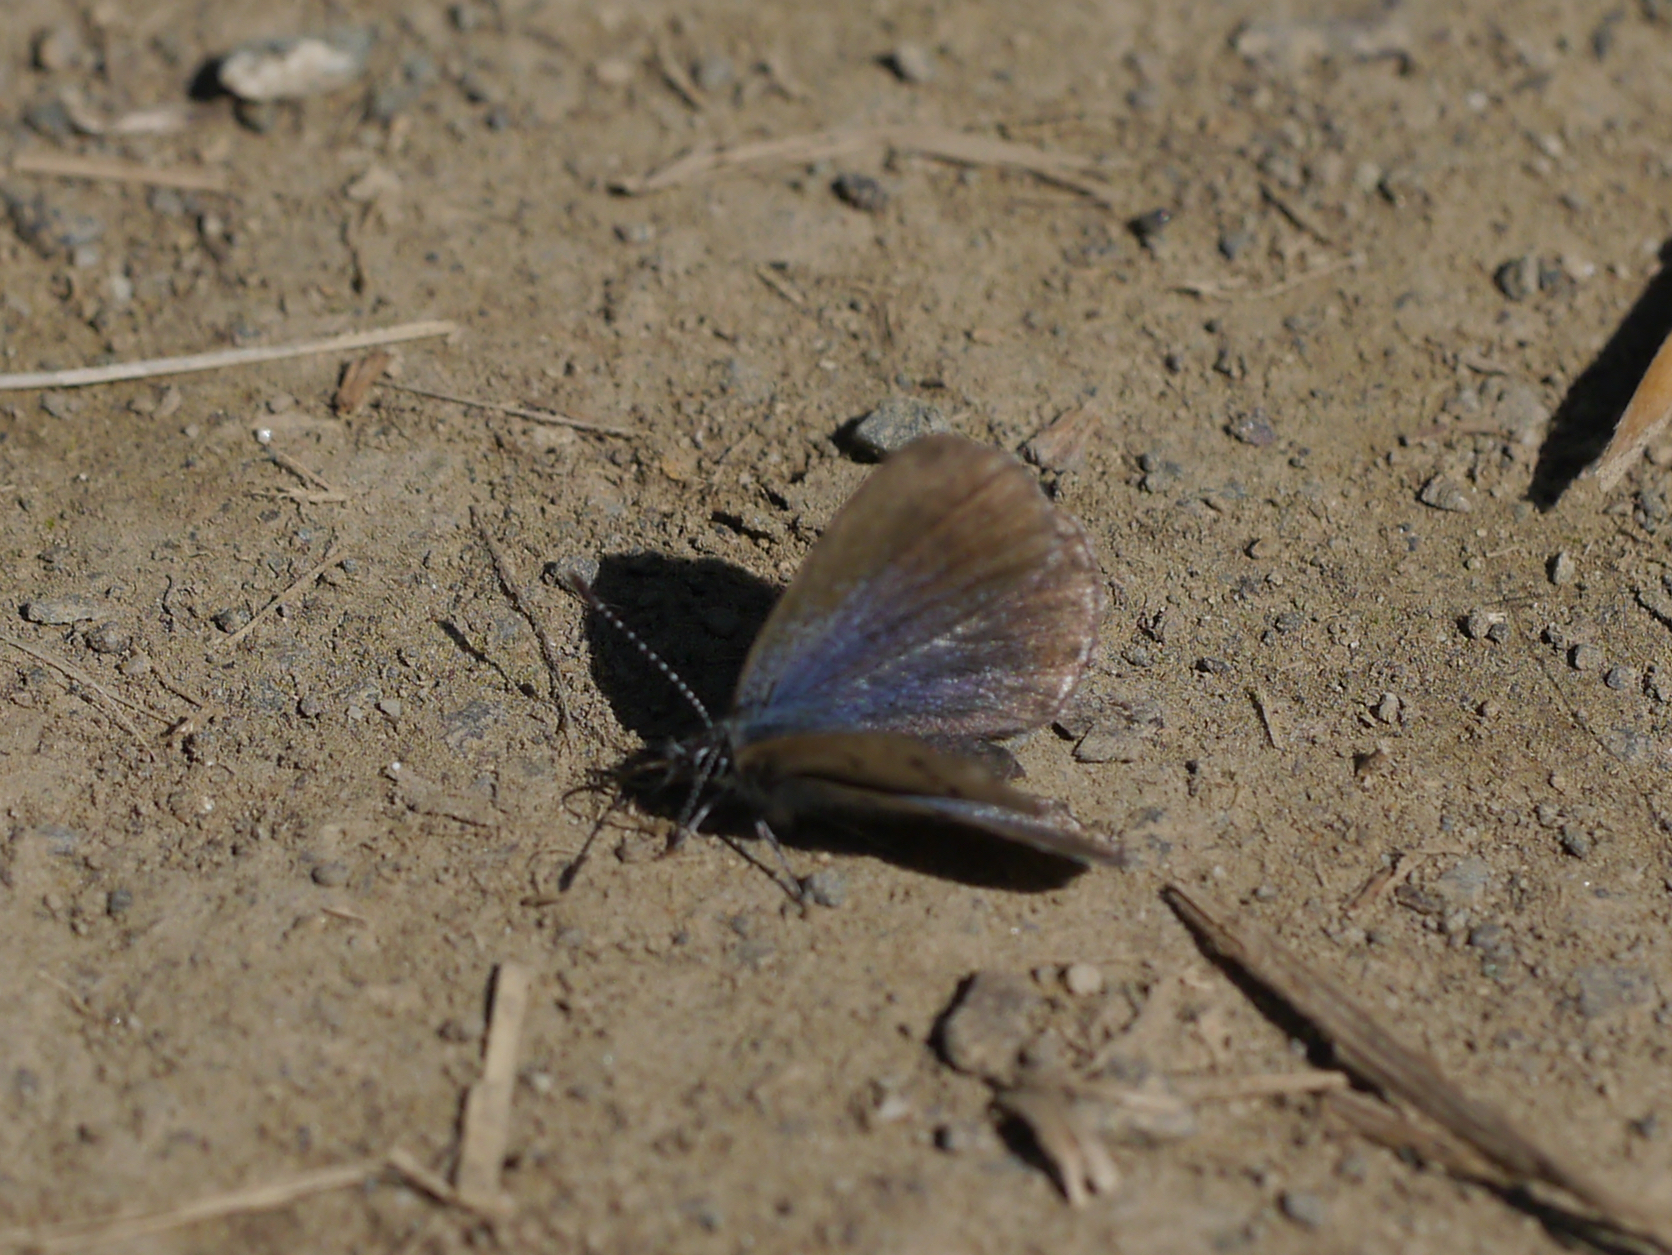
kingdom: Animalia
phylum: Arthropoda
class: Insecta
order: Lepidoptera
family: Lycaenidae
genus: Vacciniina
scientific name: Vacciniina optilete
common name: Cranberry blue
